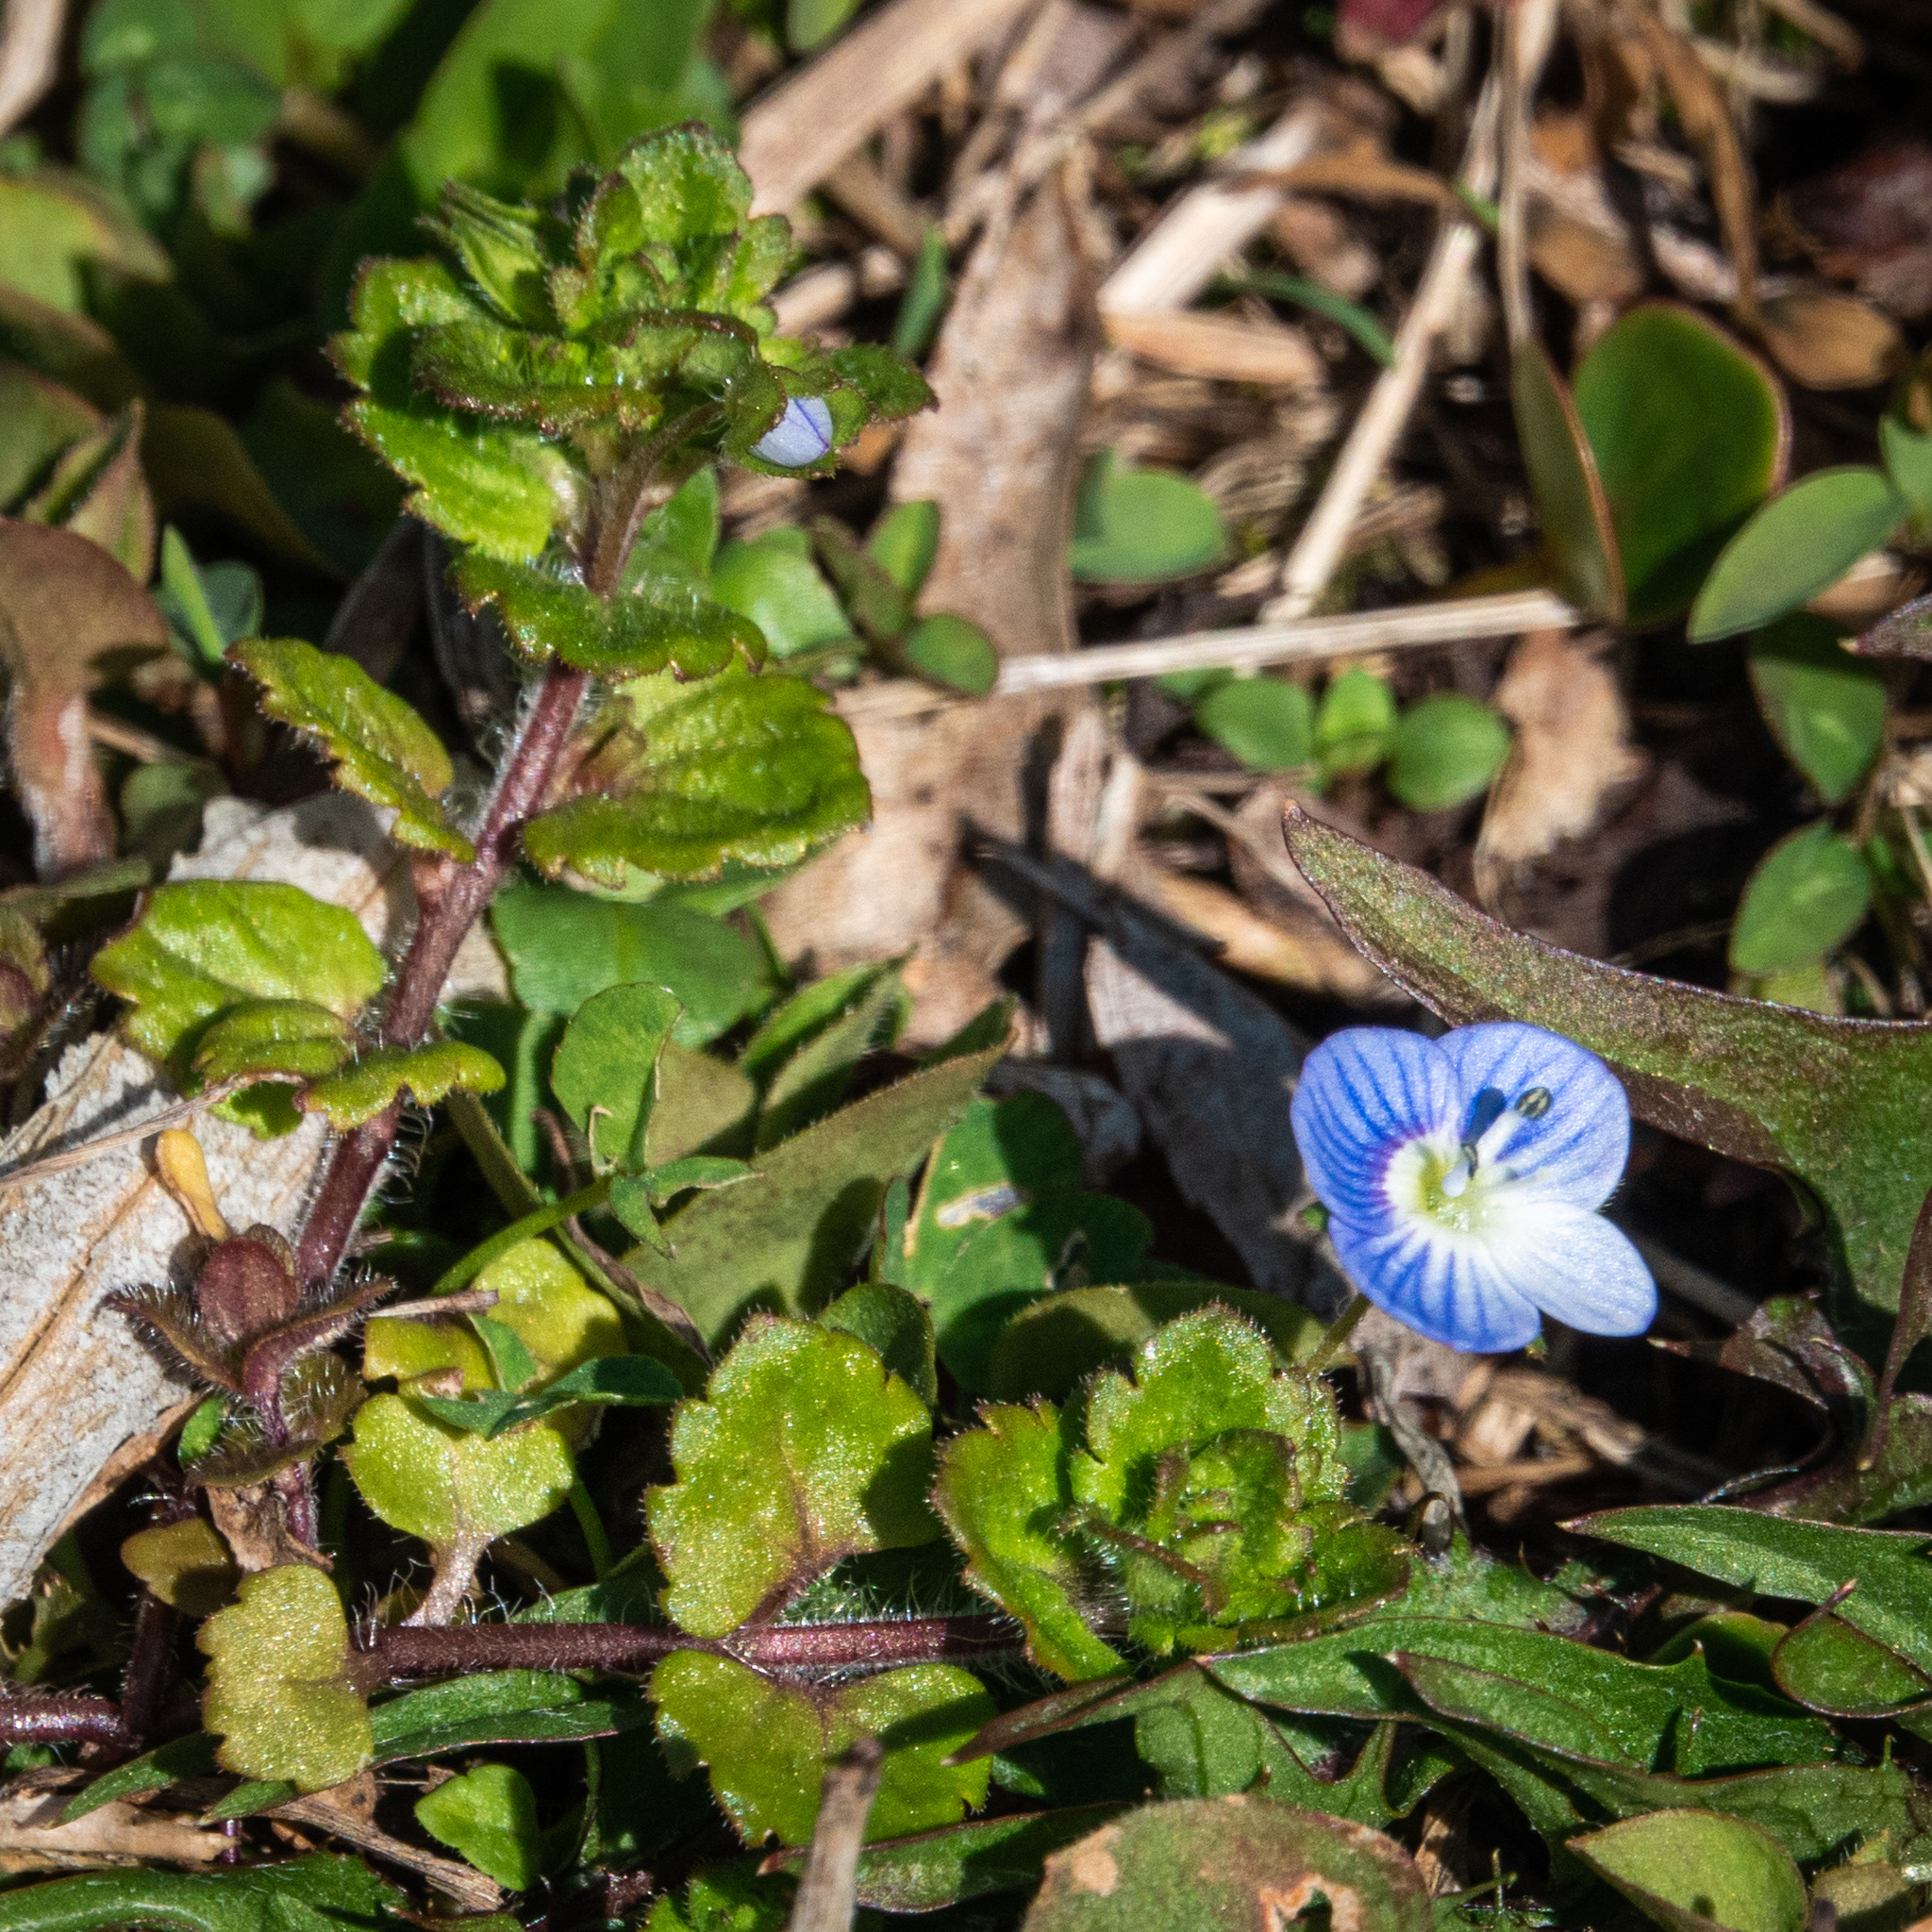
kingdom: Plantae
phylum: Tracheophyta
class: Magnoliopsida
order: Lamiales
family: Plantaginaceae
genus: Veronica
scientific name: Veronica persica
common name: Common field-speedwell
